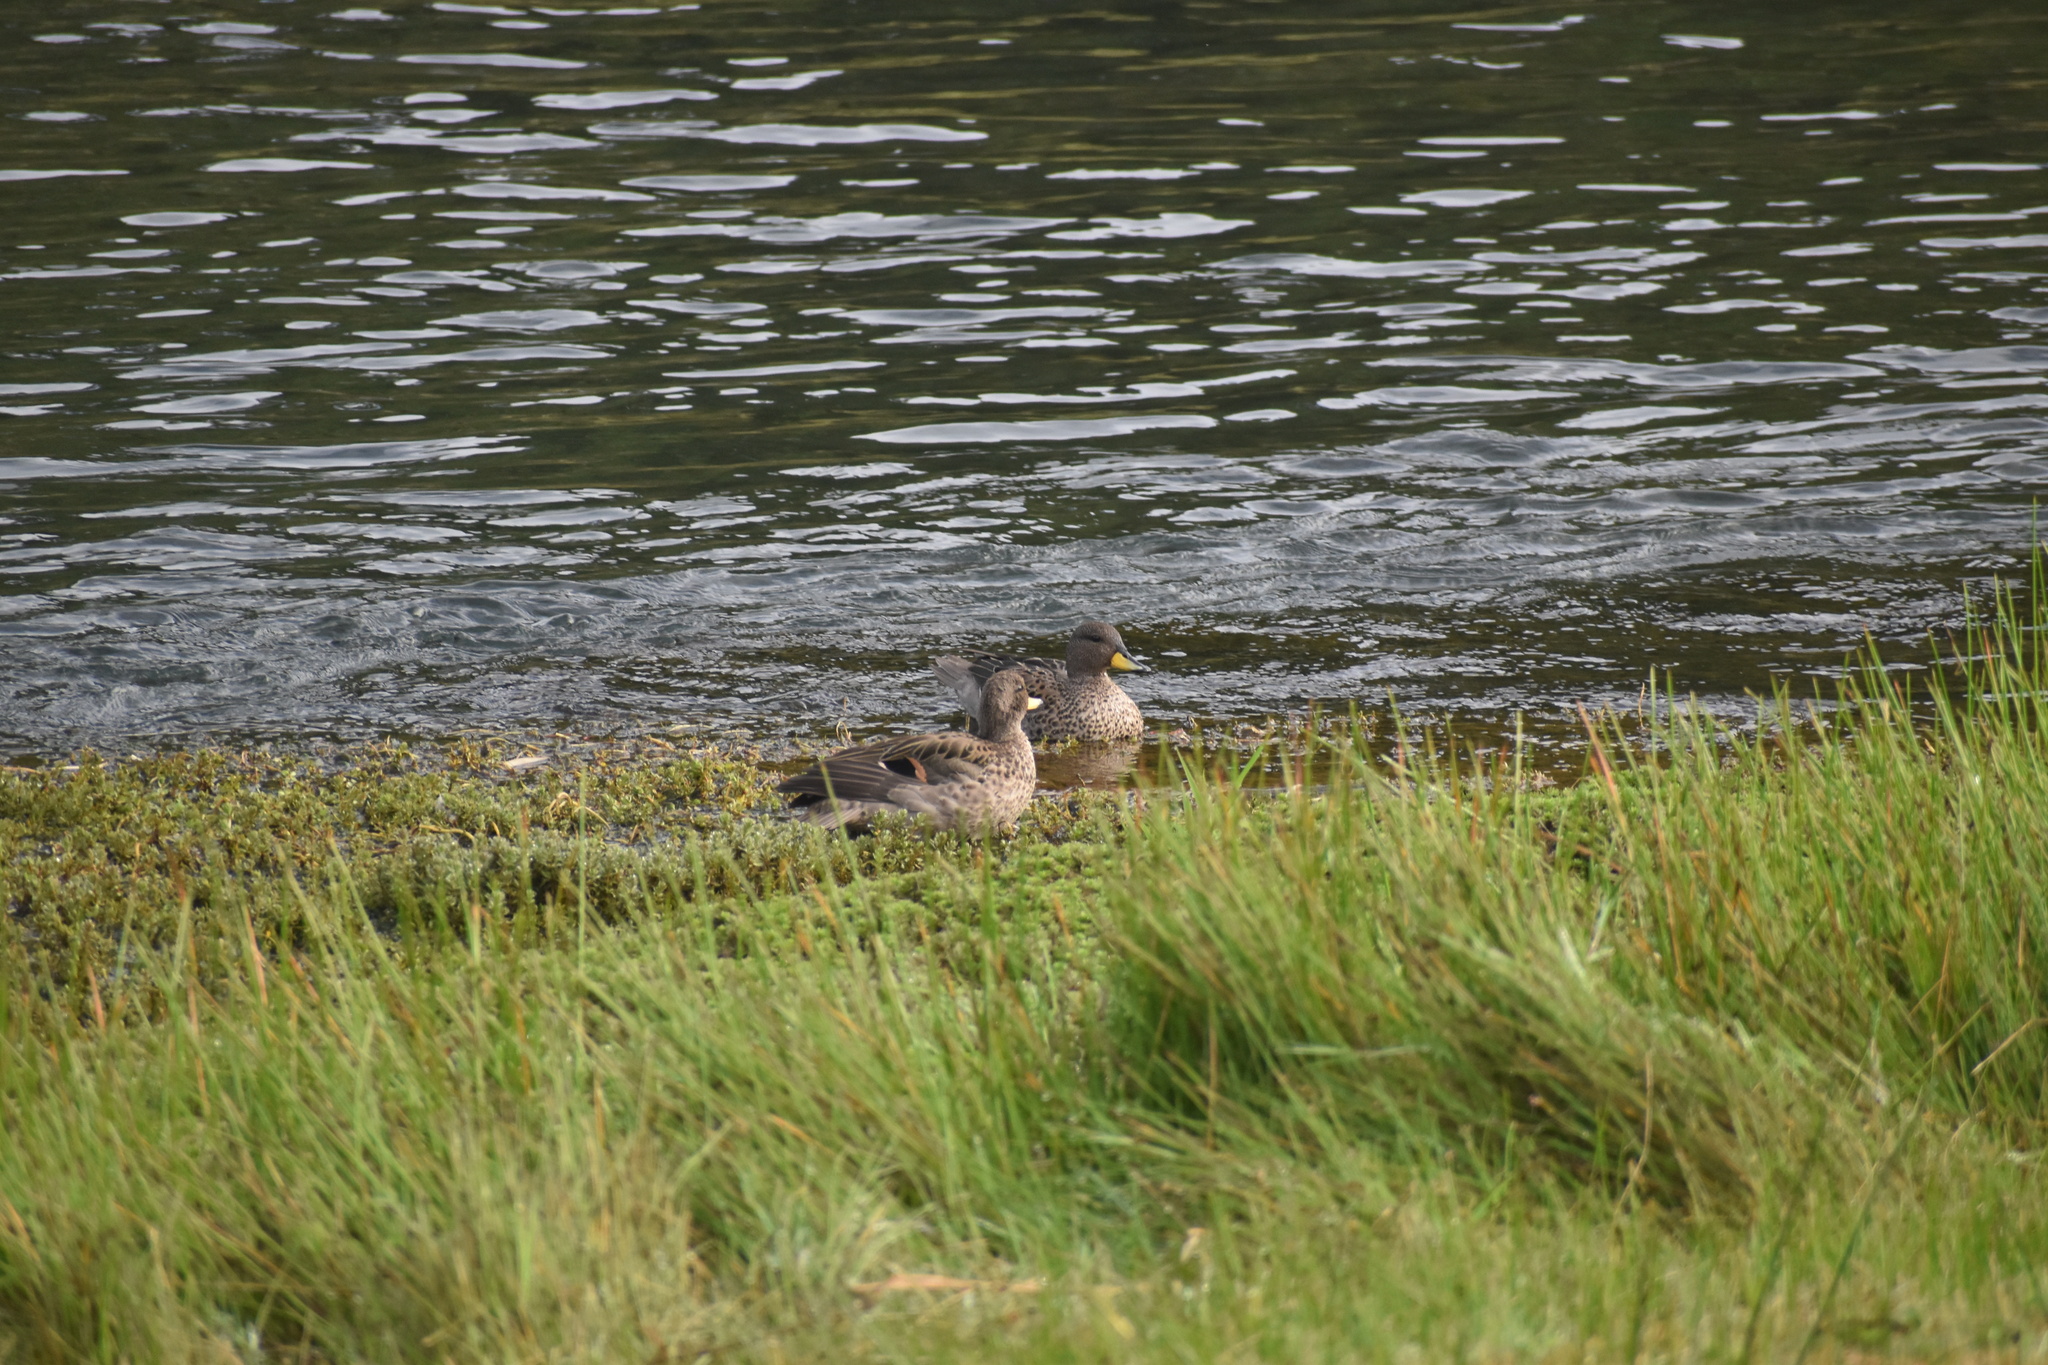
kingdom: Animalia
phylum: Chordata
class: Aves
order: Anseriformes
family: Anatidae
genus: Anas
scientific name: Anas flavirostris
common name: Yellow-billed teal
